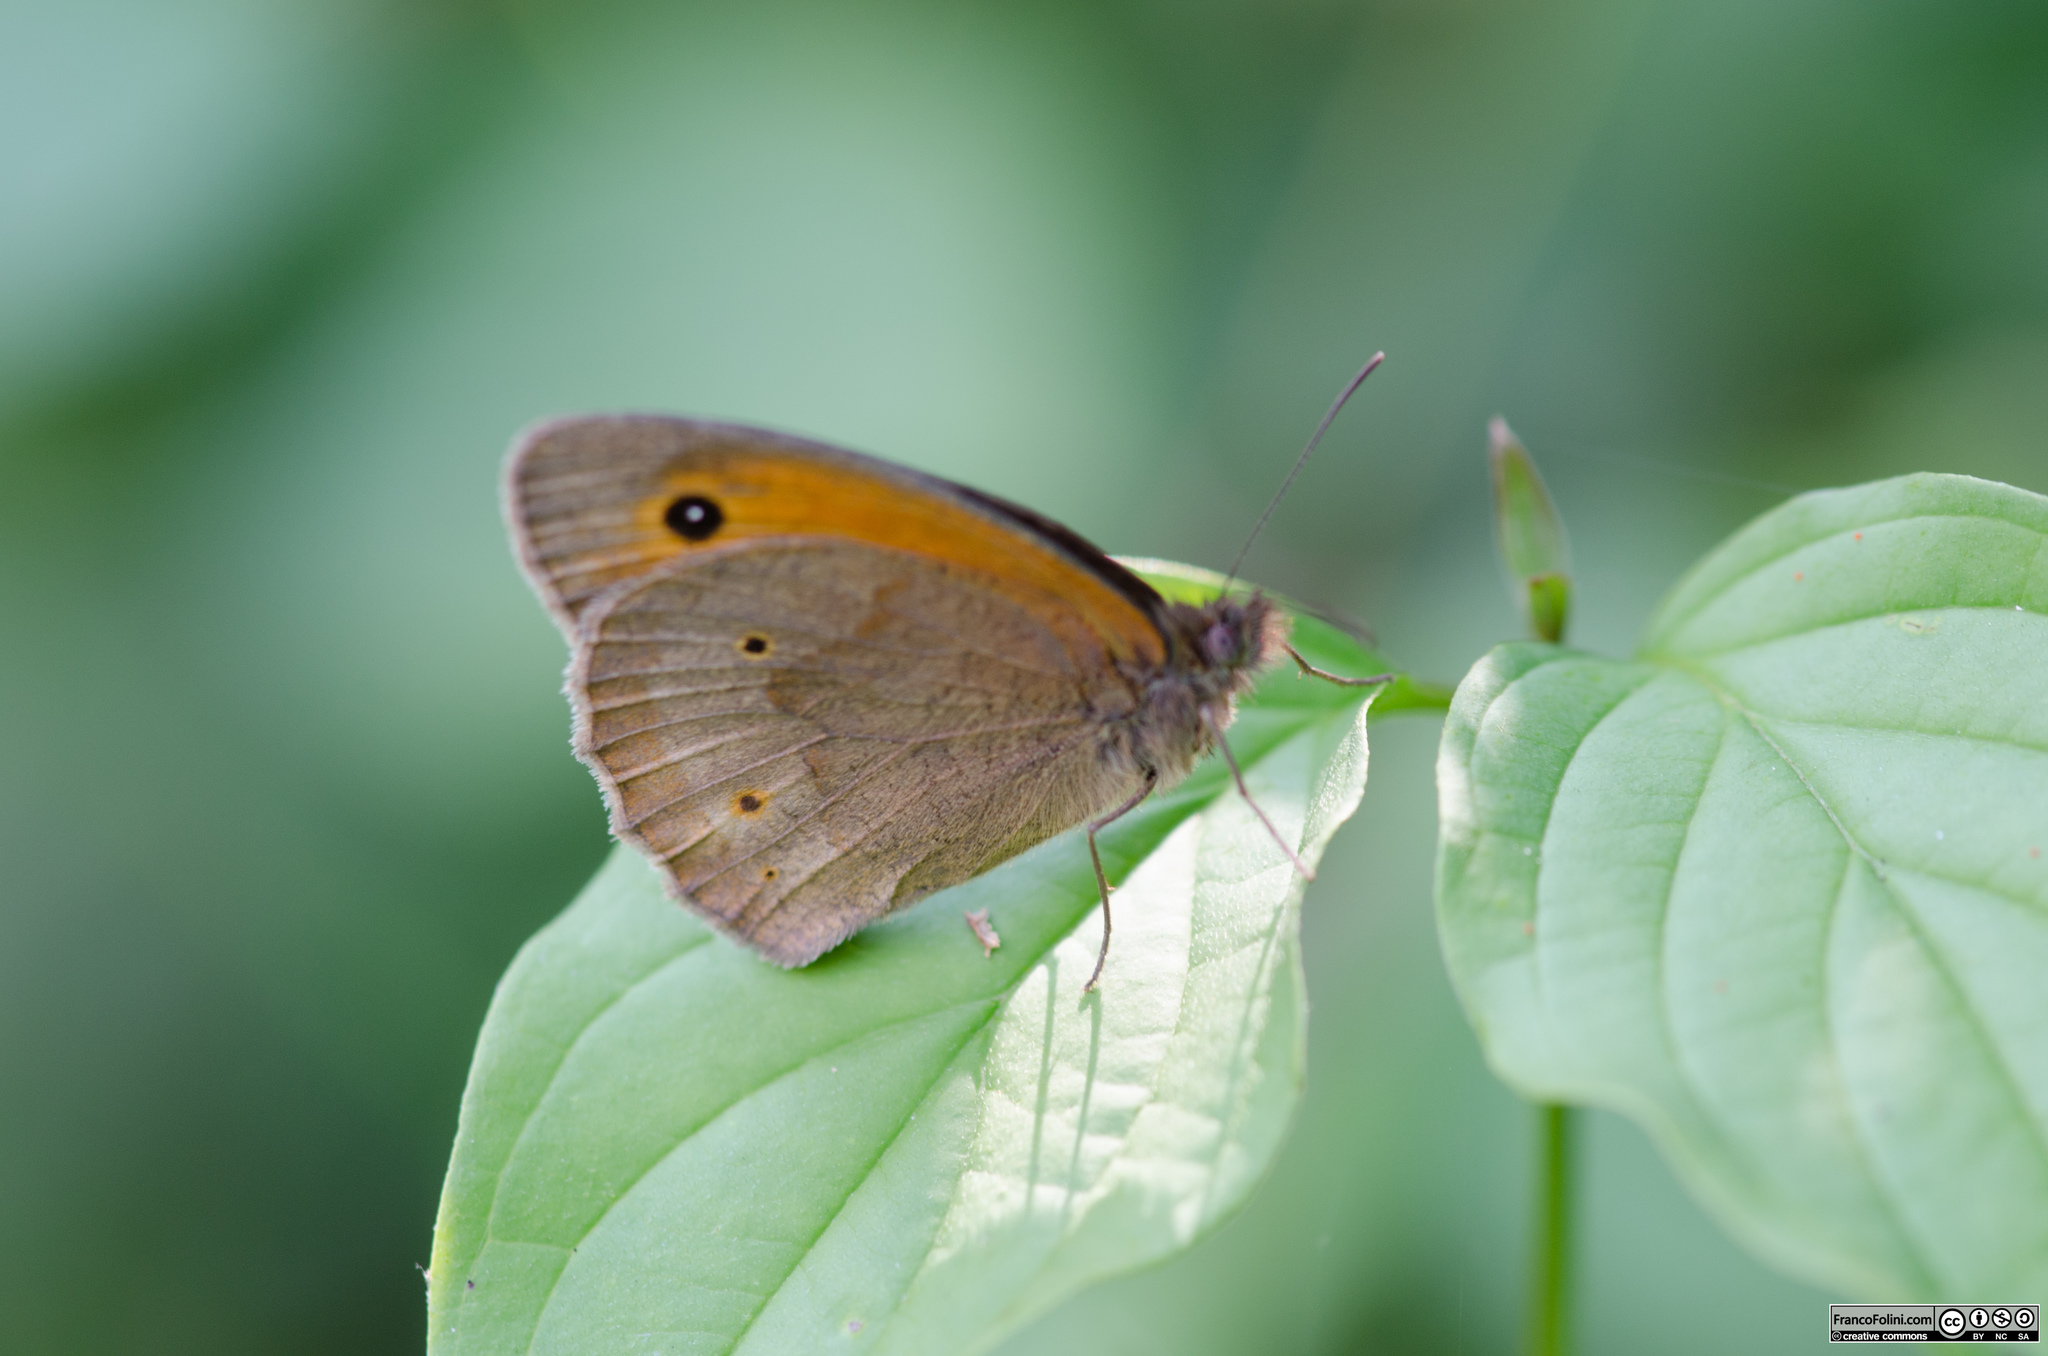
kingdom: Animalia
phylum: Arthropoda
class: Insecta
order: Lepidoptera
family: Nymphalidae
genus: Maniola
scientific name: Maniola jurtina
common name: Meadow brown
